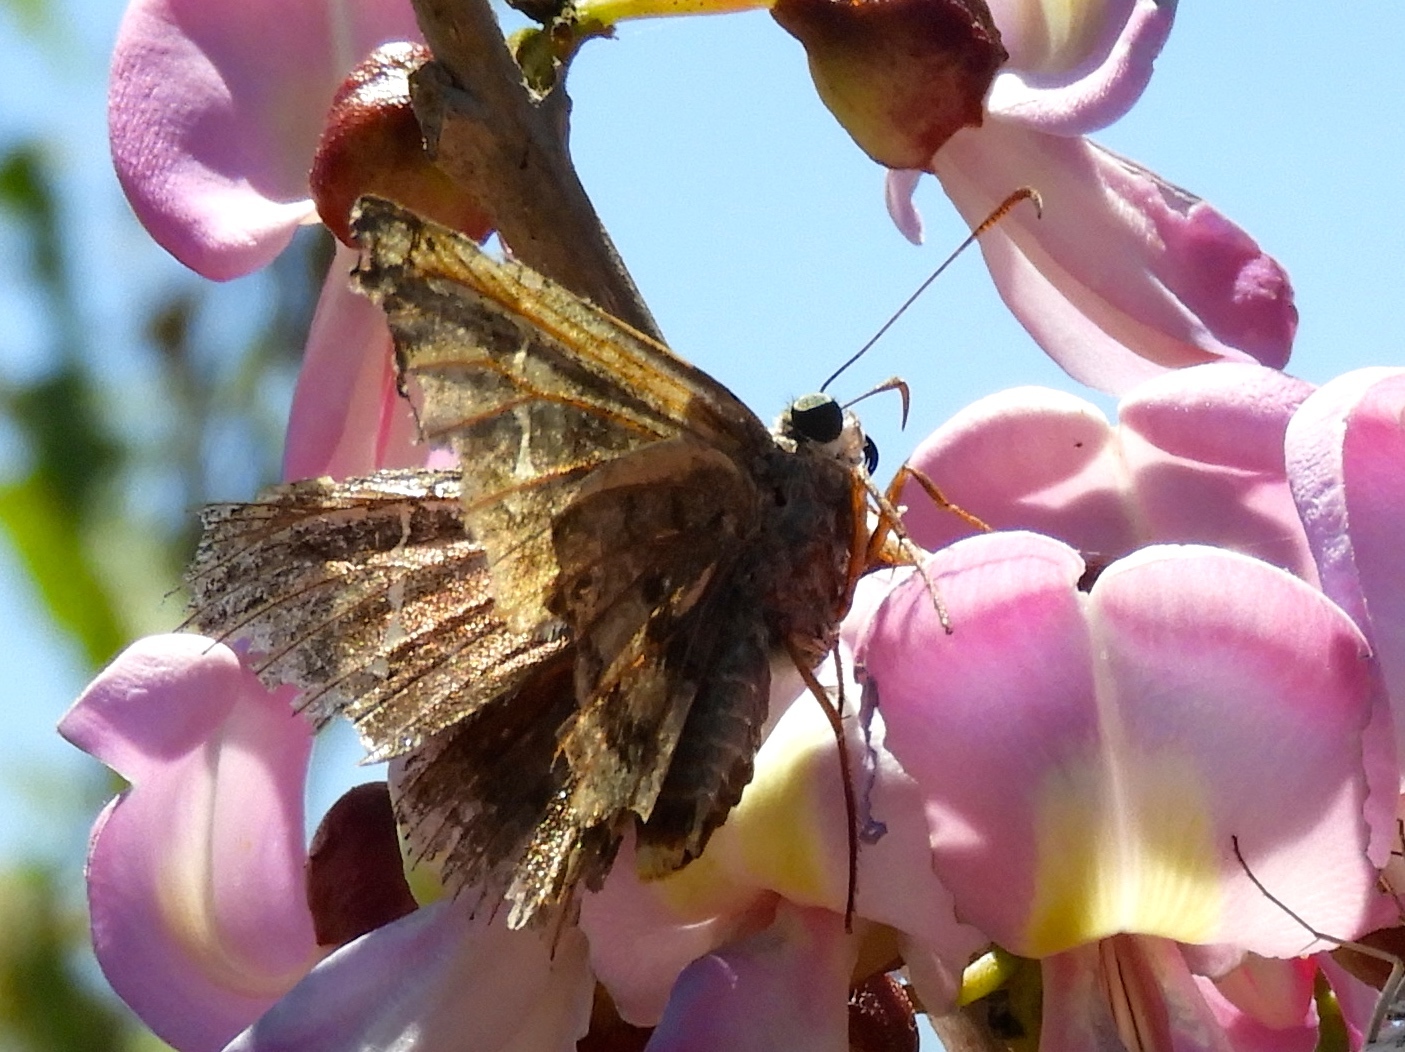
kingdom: Animalia
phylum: Arthropoda
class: Insecta
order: Lepidoptera
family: Hesperiidae
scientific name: Hesperiidae
